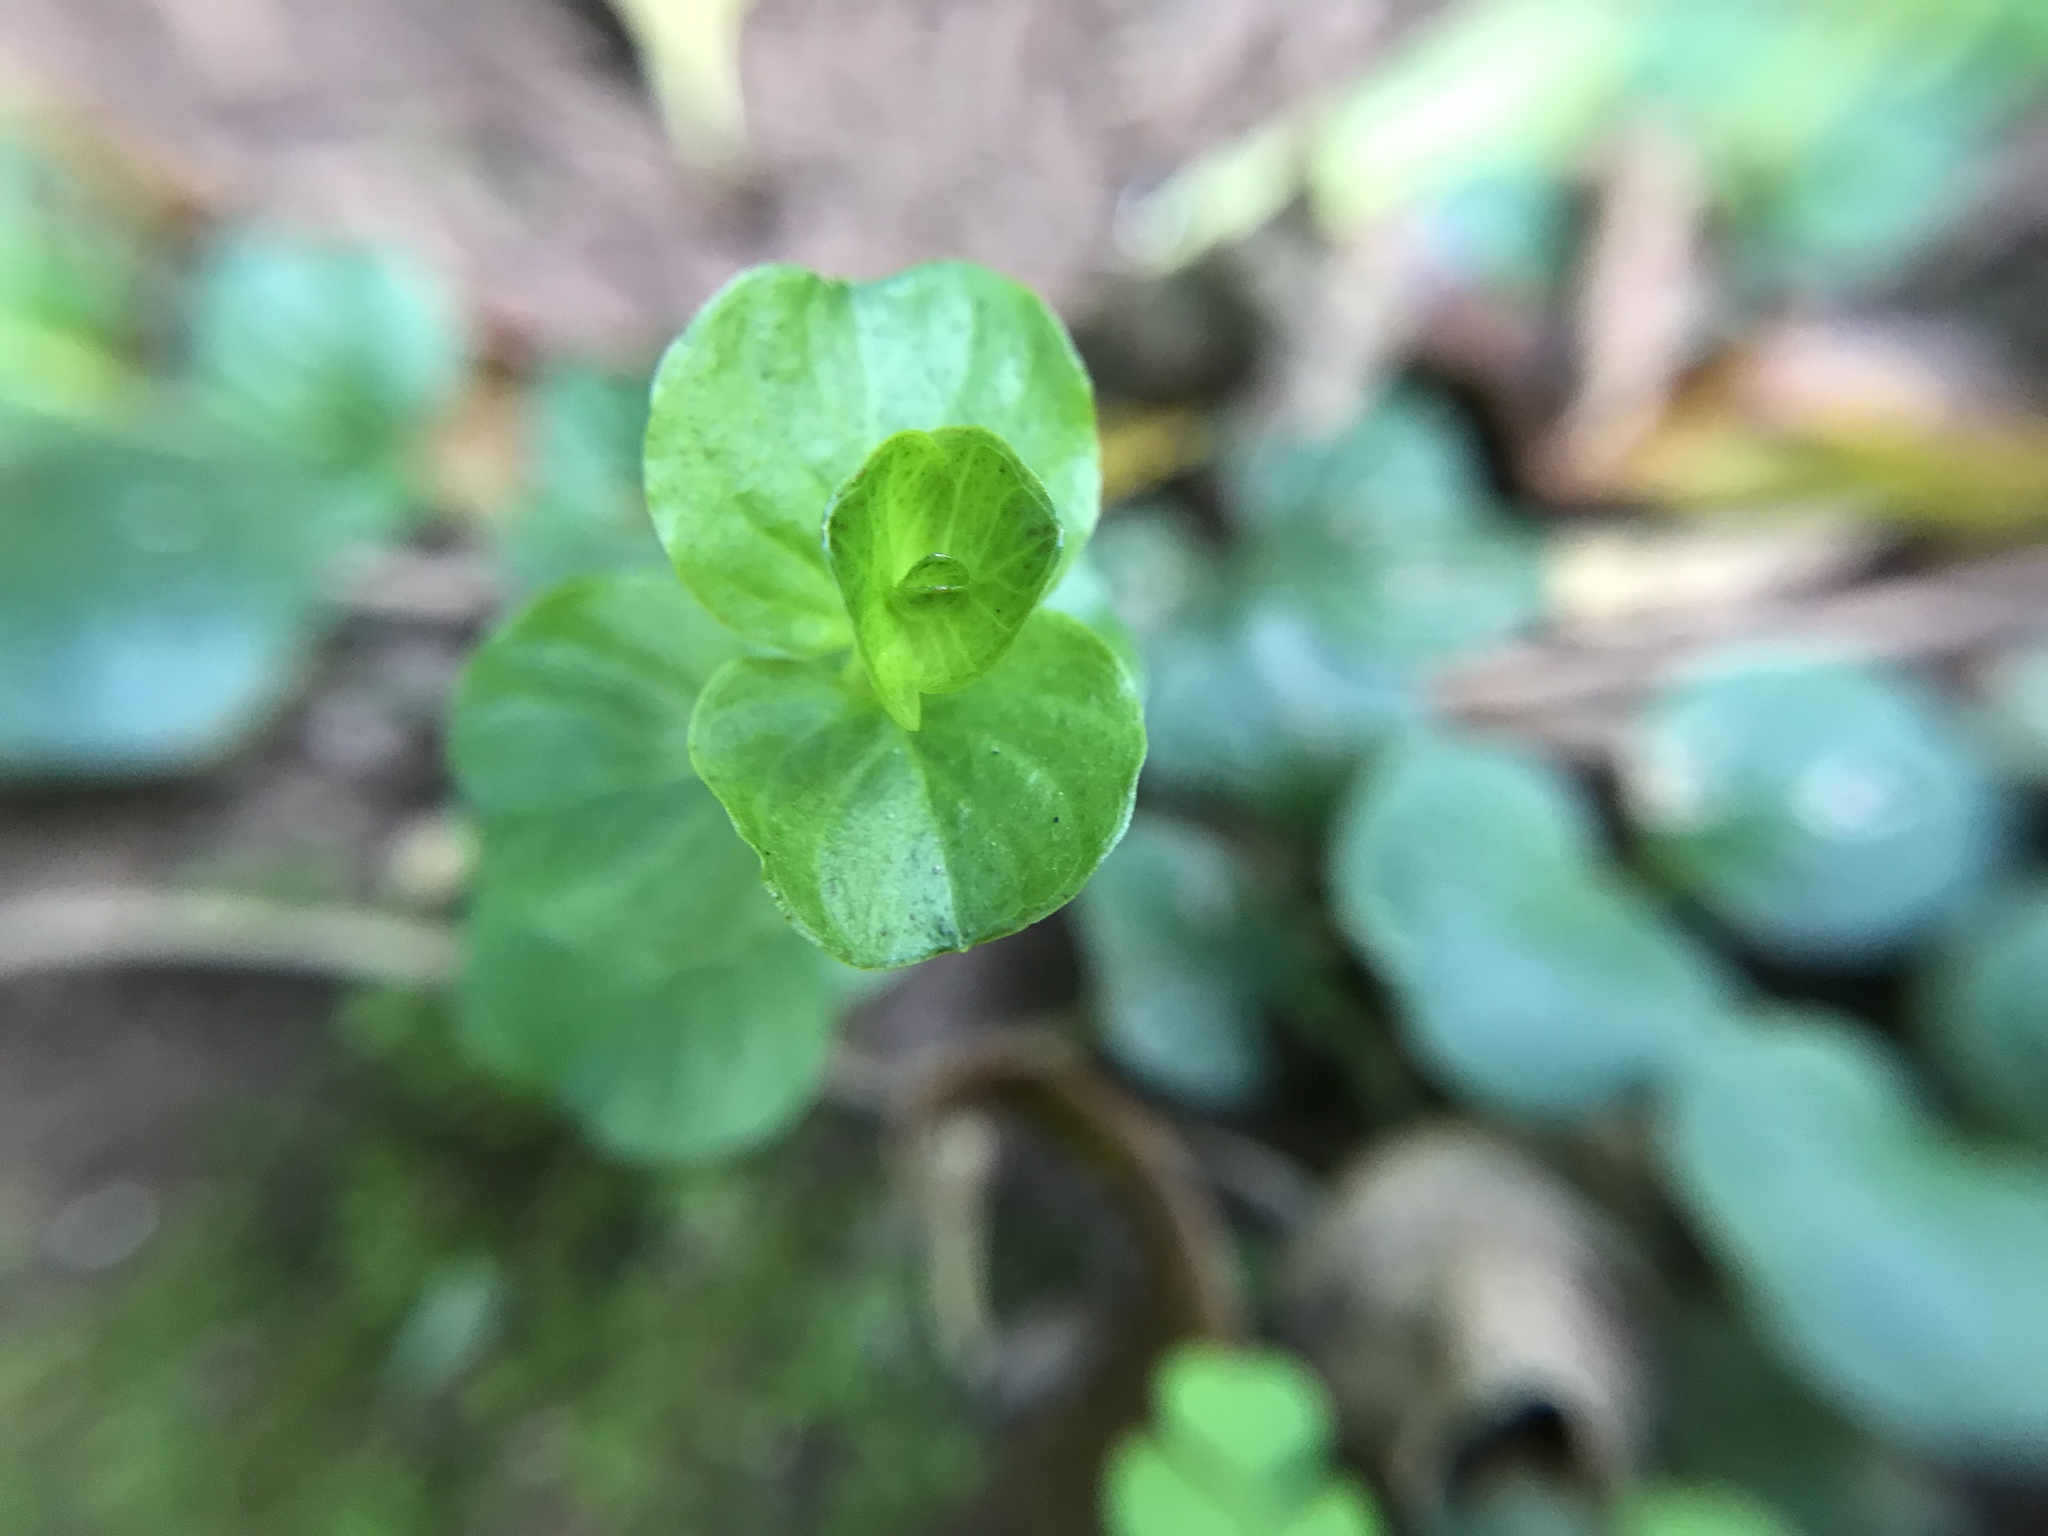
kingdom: Plantae
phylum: Tracheophyta
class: Magnoliopsida
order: Ericales
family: Primulaceae
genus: Lysimachia
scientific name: Lysimachia nummularia
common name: Moneywort
